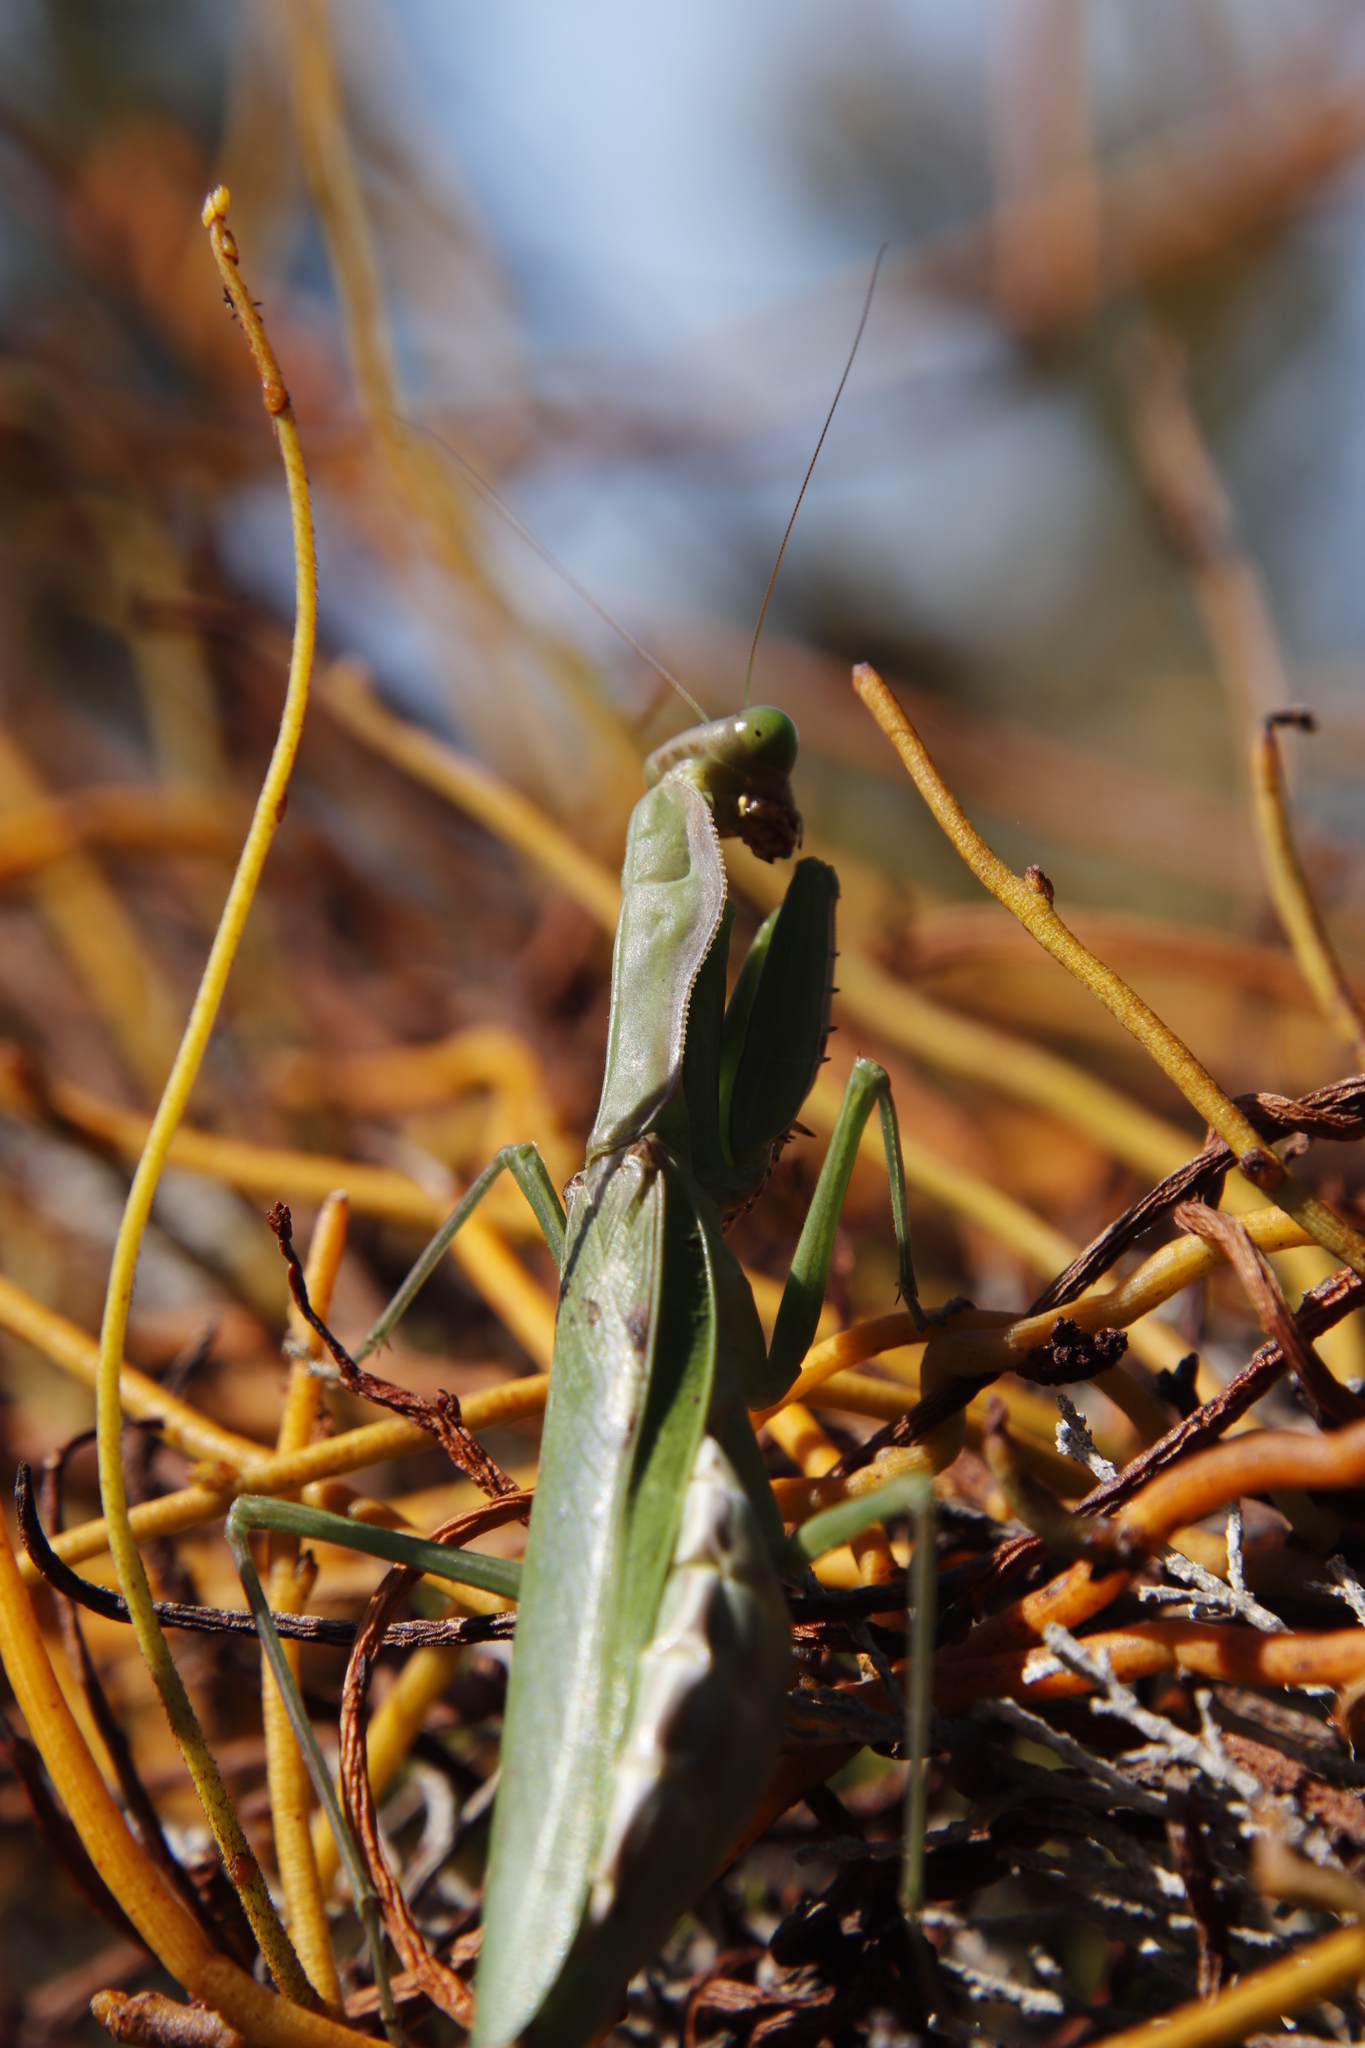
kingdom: Plantae
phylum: Tracheophyta
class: Magnoliopsida
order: Laurales
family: Lauraceae
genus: Cassytha
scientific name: Cassytha ciliolata
